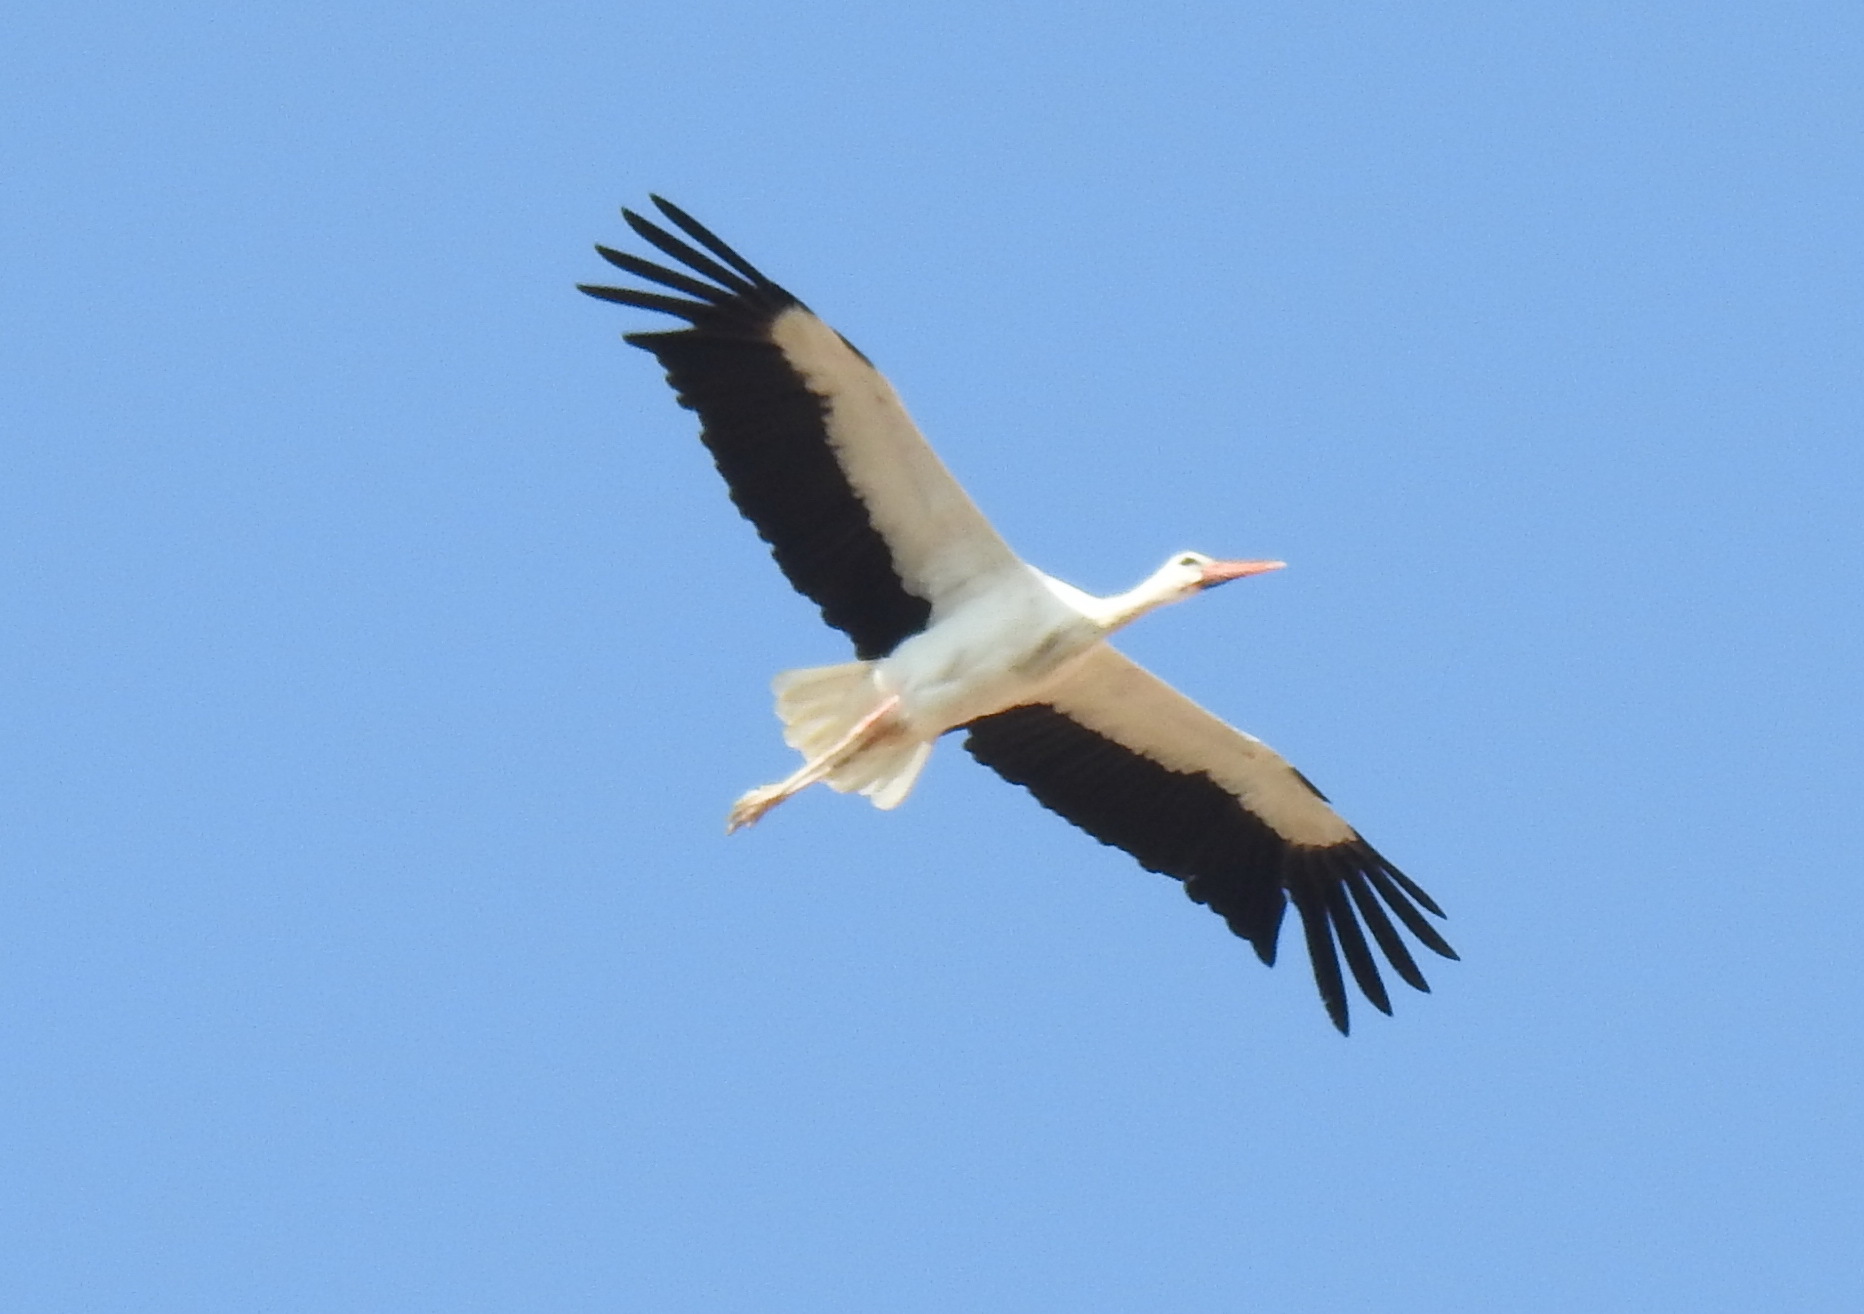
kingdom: Animalia
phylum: Chordata
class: Aves
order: Ciconiiformes
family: Ciconiidae
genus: Ciconia
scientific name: Ciconia ciconia
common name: White stork
